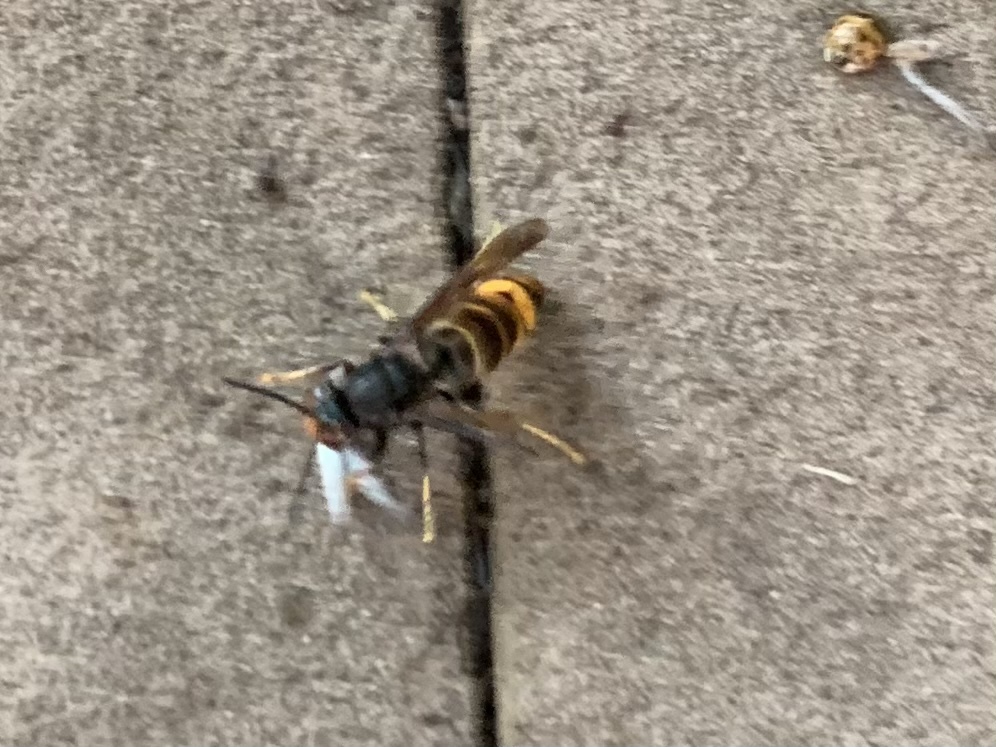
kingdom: Animalia
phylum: Arthropoda
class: Insecta
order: Hymenoptera
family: Vespidae
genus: Vespa
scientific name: Vespa velutina
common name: Asian hornet
